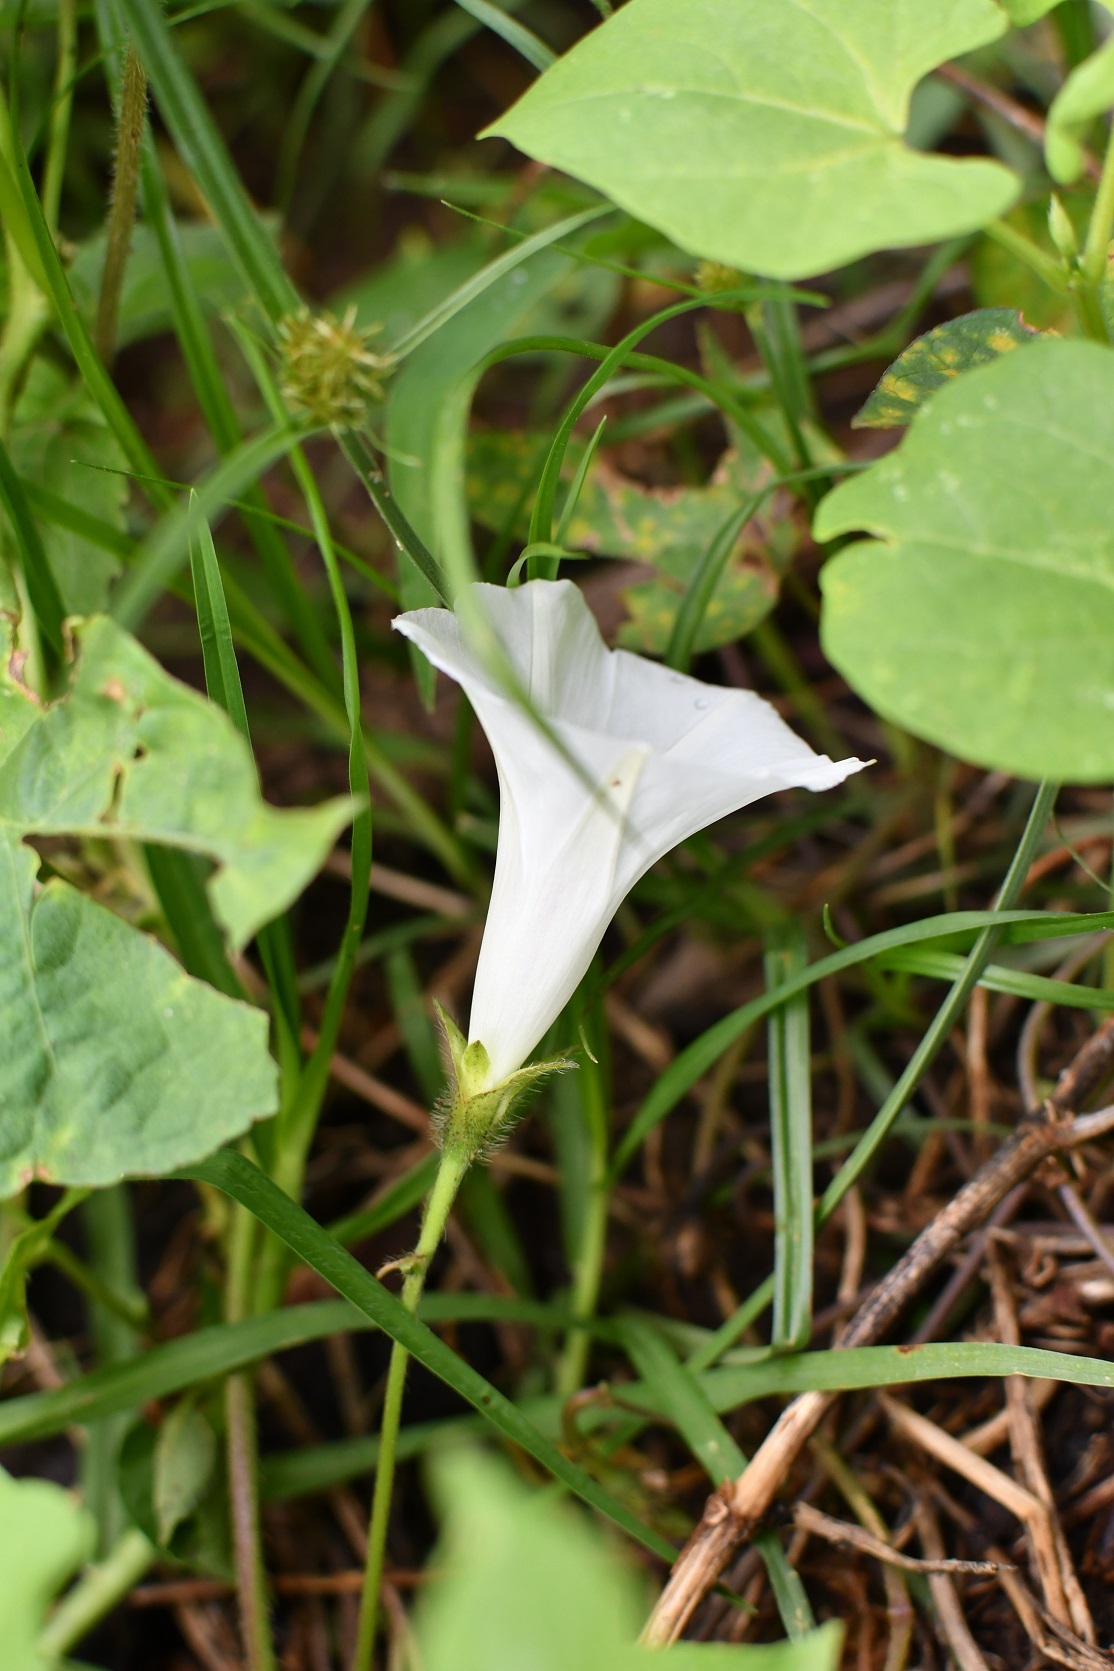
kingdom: Plantae
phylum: Tracheophyta
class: Magnoliopsida
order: Solanales
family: Convolvulaceae
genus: Ipomoea
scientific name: Ipomoea purpurea
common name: Common morning-glory
